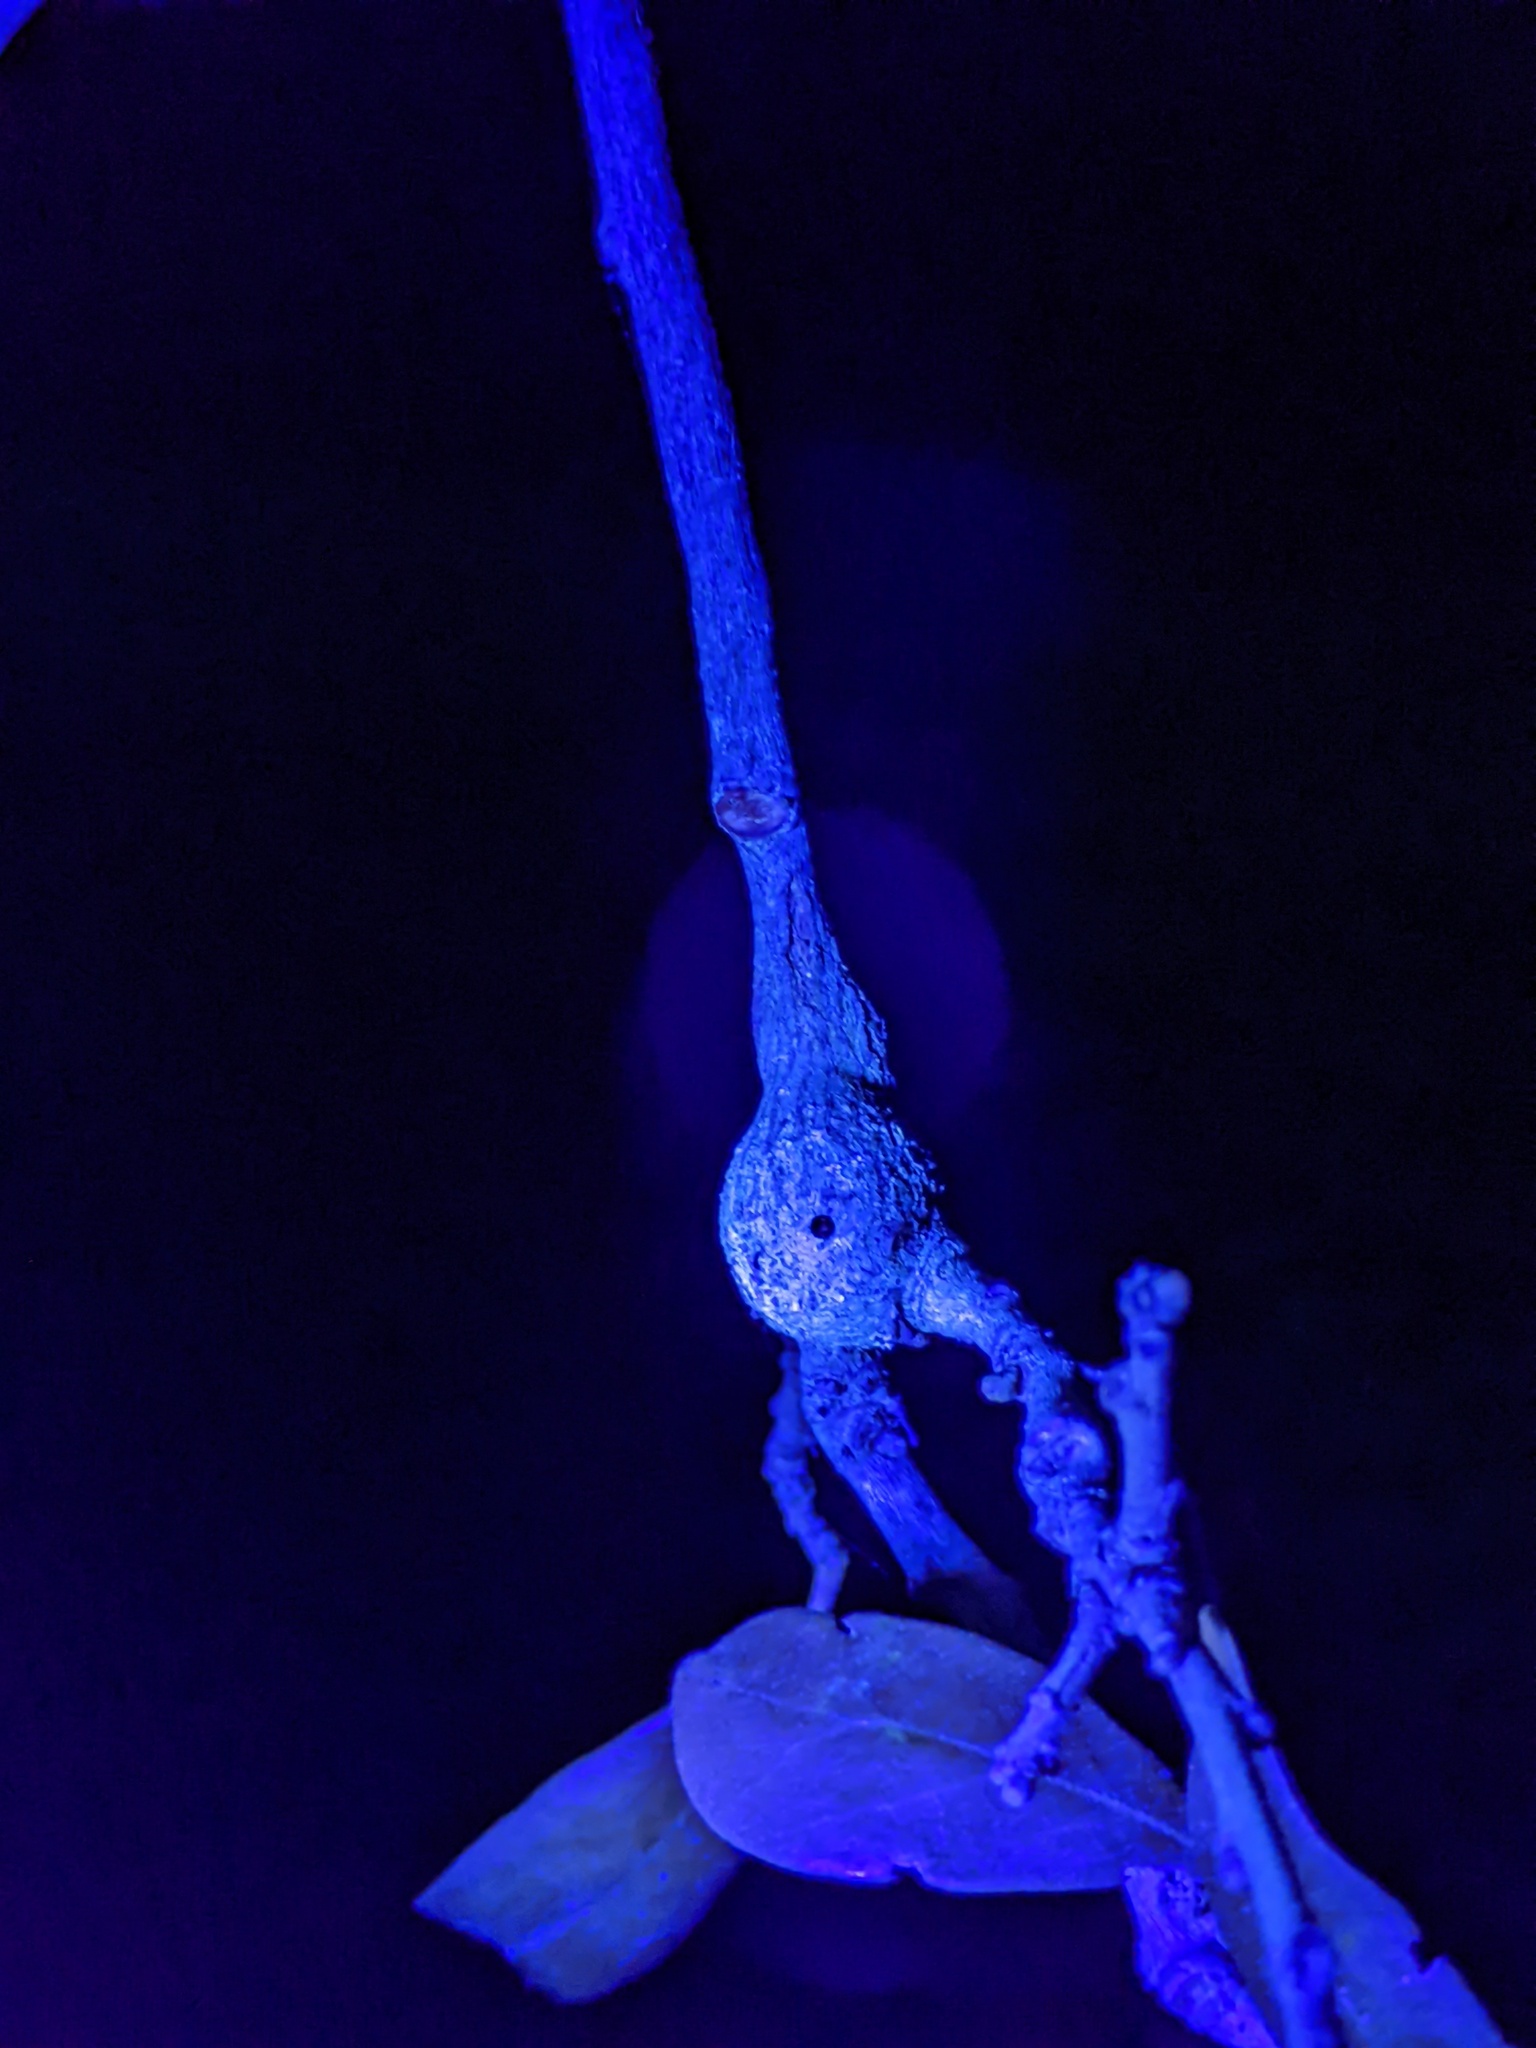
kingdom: Animalia
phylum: Arthropoda
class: Insecta
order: Hymenoptera
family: Cynipidae
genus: Callirhytis
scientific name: Callirhytis
